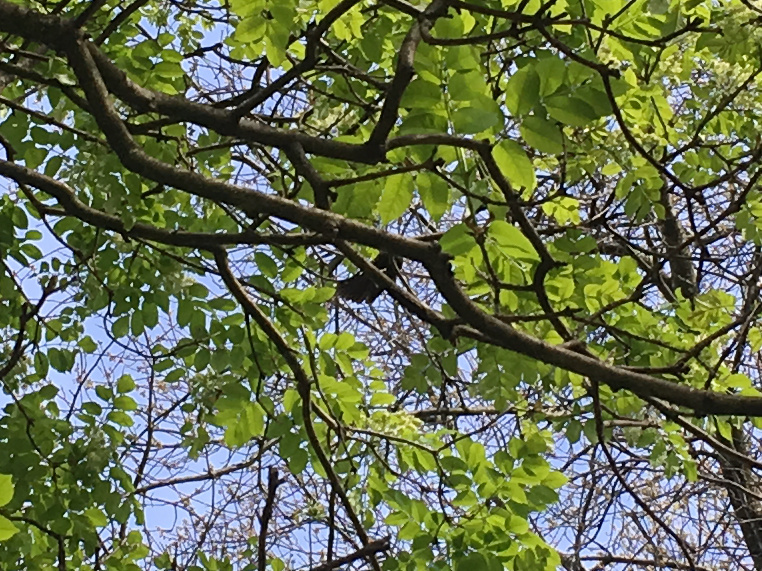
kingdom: Animalia
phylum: Chordata
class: Aves
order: Passeriformes
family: Rhipiduridae
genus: Rhipidura
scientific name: Rhipidura fuliginosa
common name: New zealand fantail
